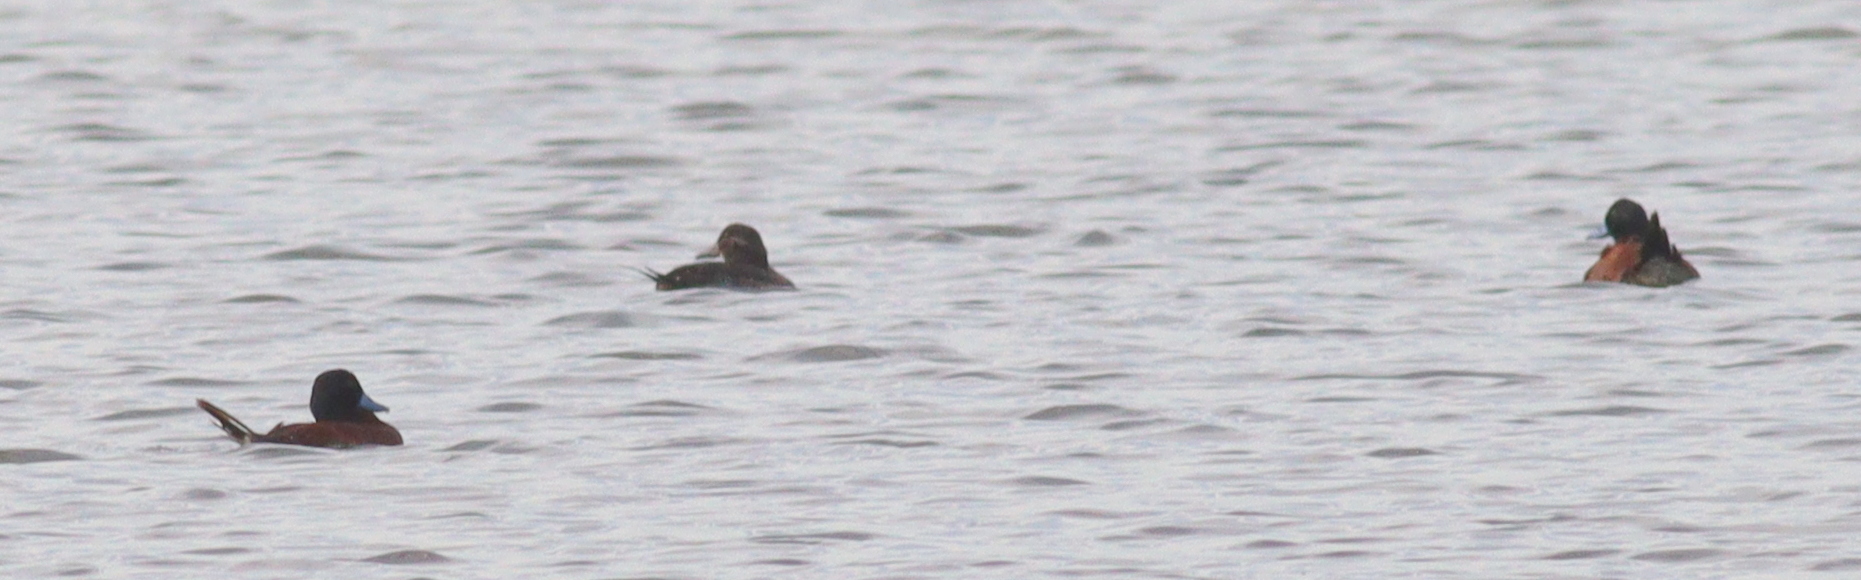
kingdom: Animalia
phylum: Chordata
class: Aves
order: Anseriformes
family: Anatidae
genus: Oxyura
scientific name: Oxyura vittata
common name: Lake duck
